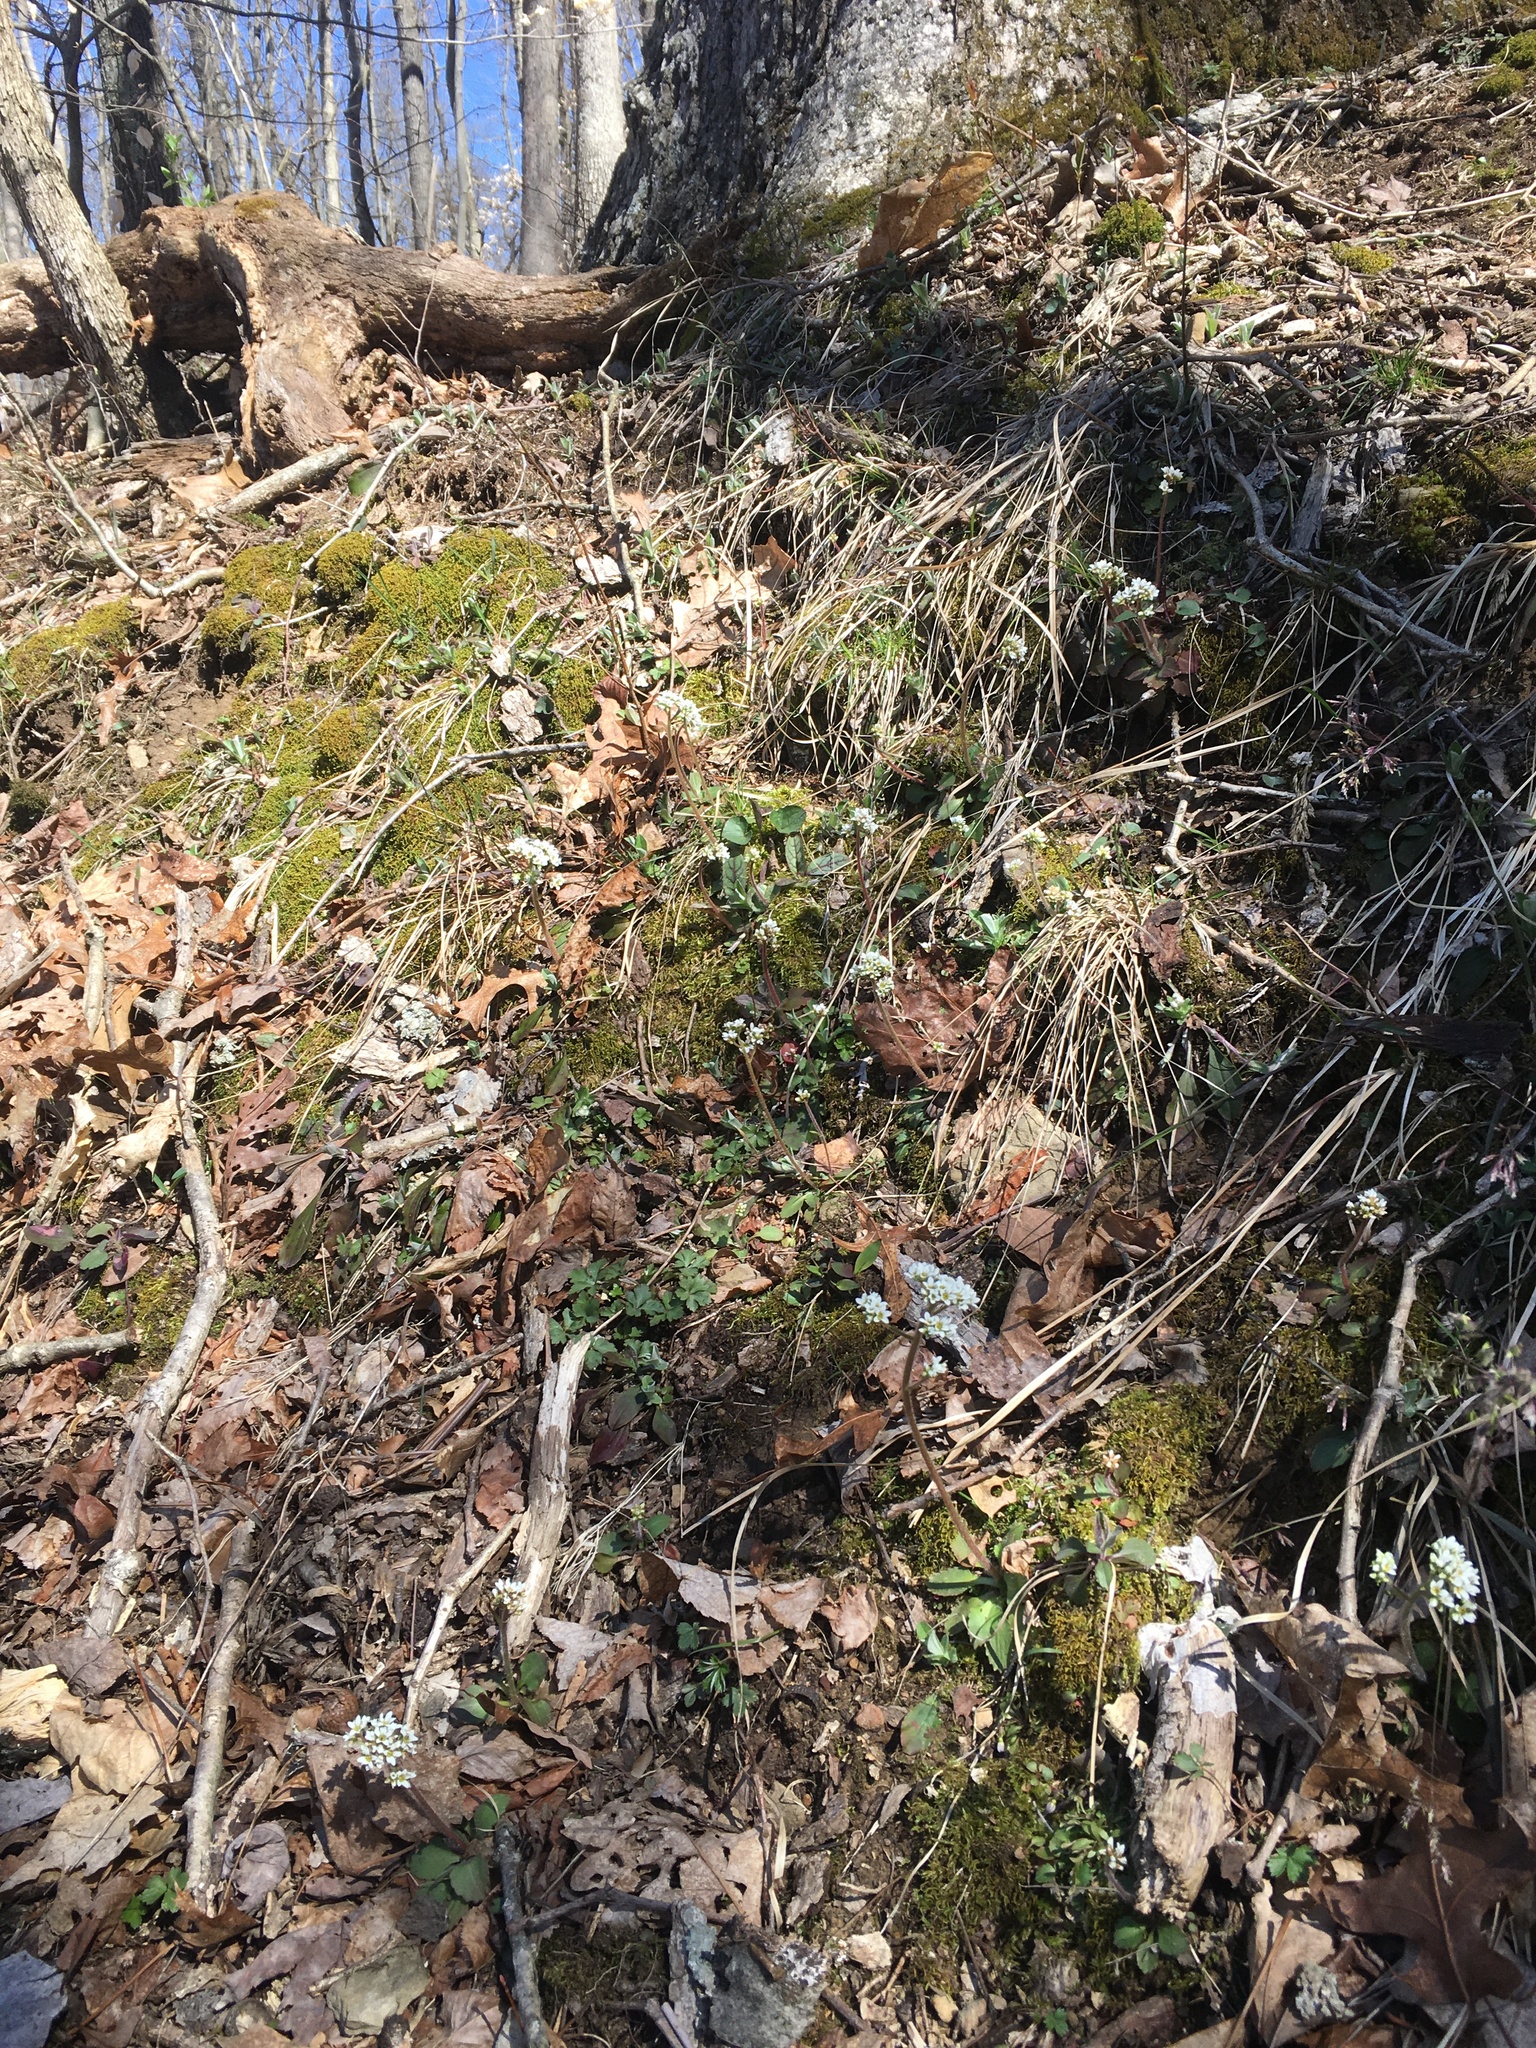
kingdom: Plantae
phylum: Tracheophyta
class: Magnoliopsida
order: Saxifragales
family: Saxifragaceae
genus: Micranthes
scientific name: Micranthes virginiensis
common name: Early saxifrage
